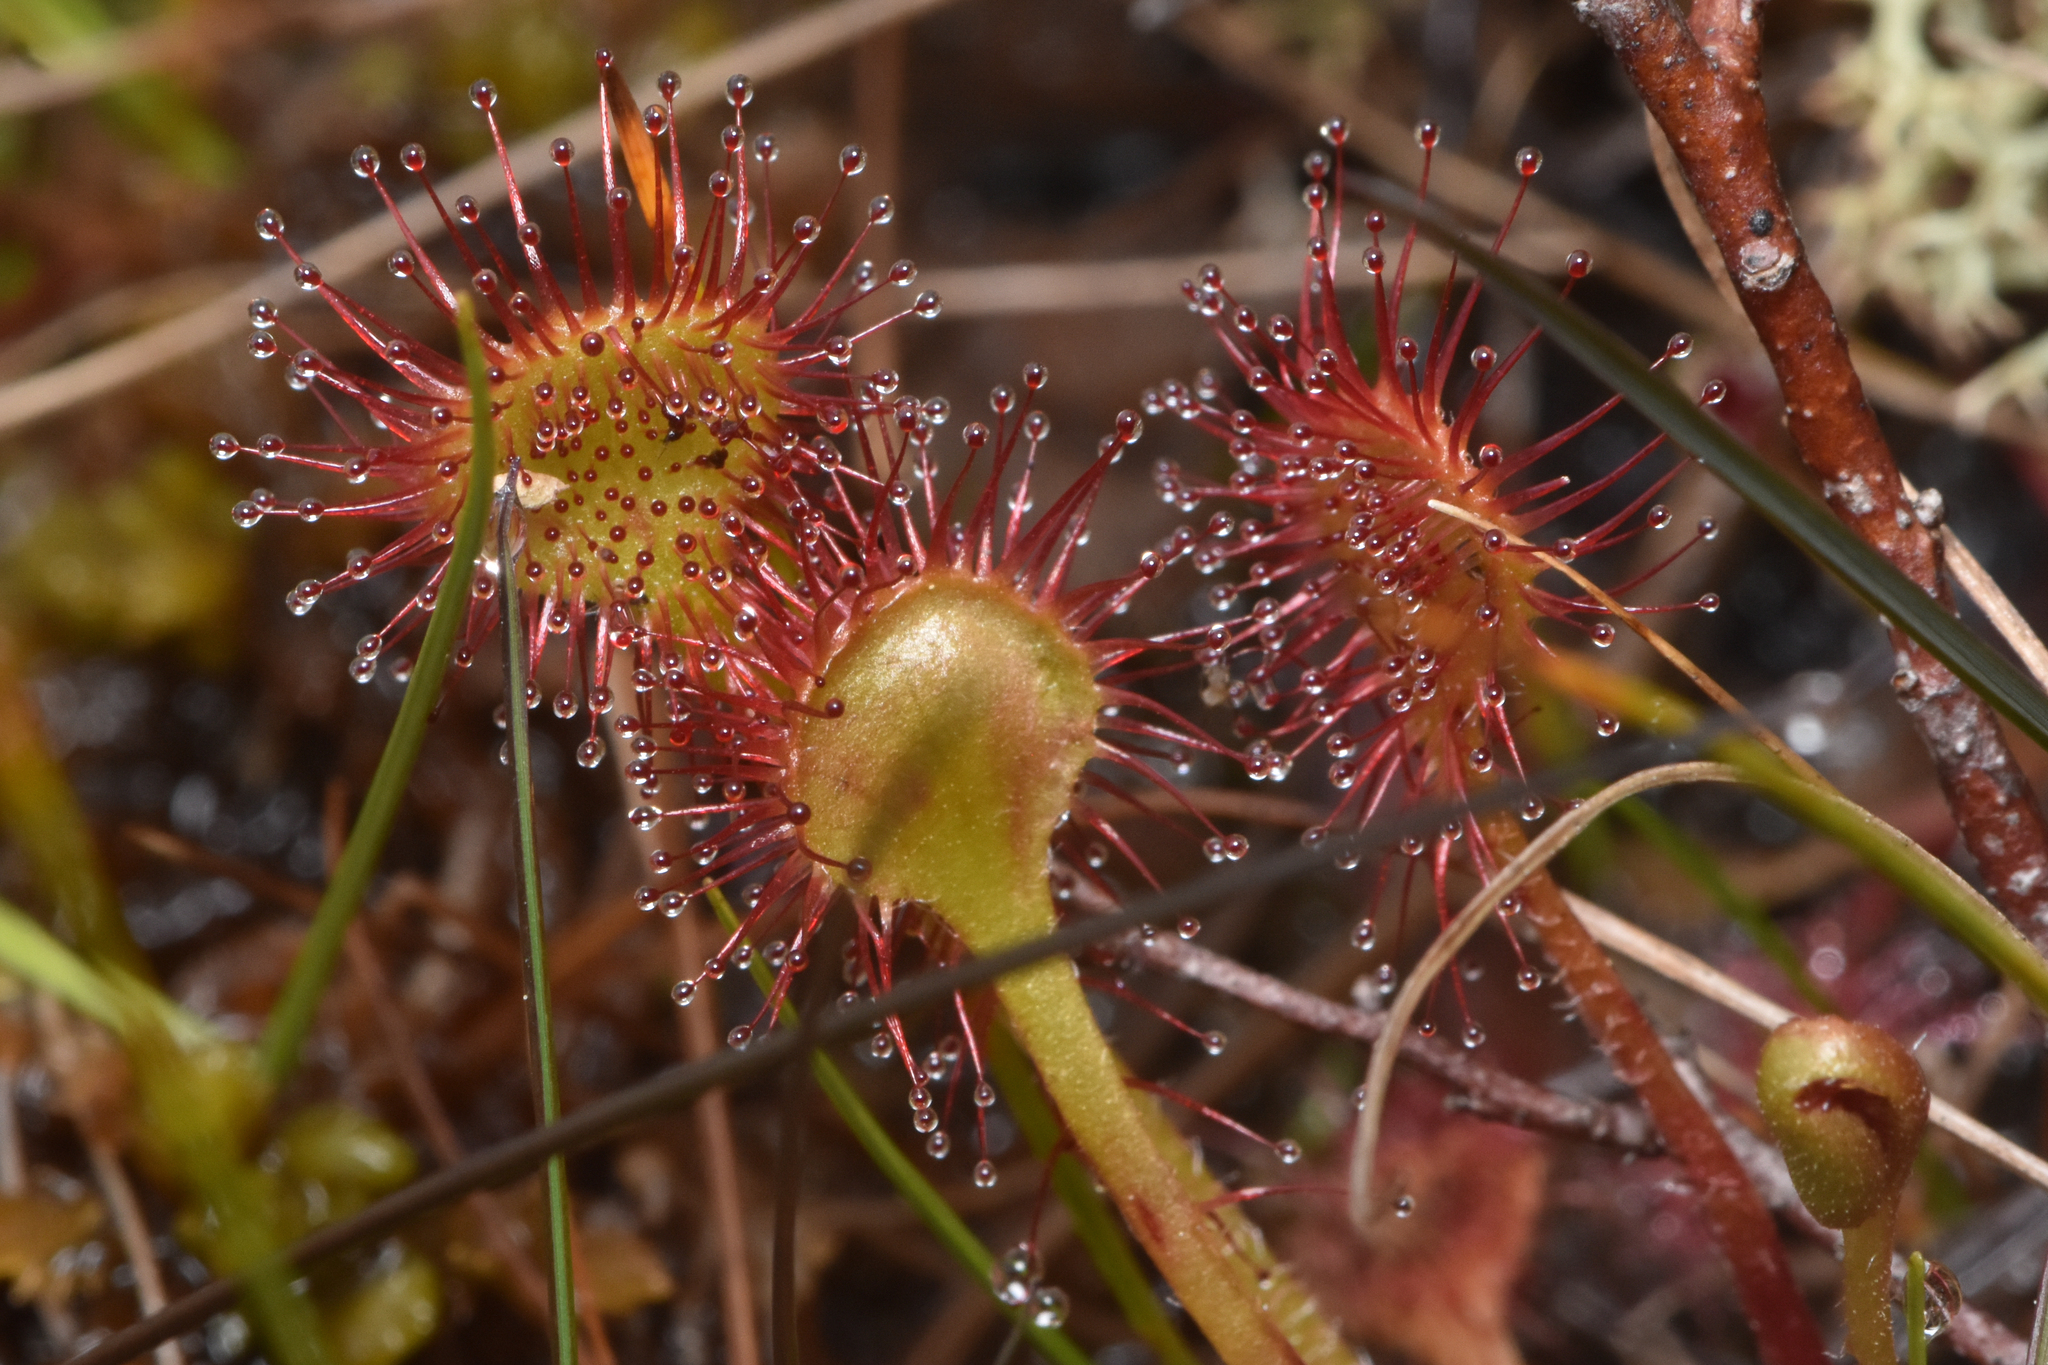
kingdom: Plantae
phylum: Tracheophyta
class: Magnoliopsida
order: Caryophyllales
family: Droseraceae
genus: Drosera
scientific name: Drosera rotundifolia
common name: Round-leaved sundew
